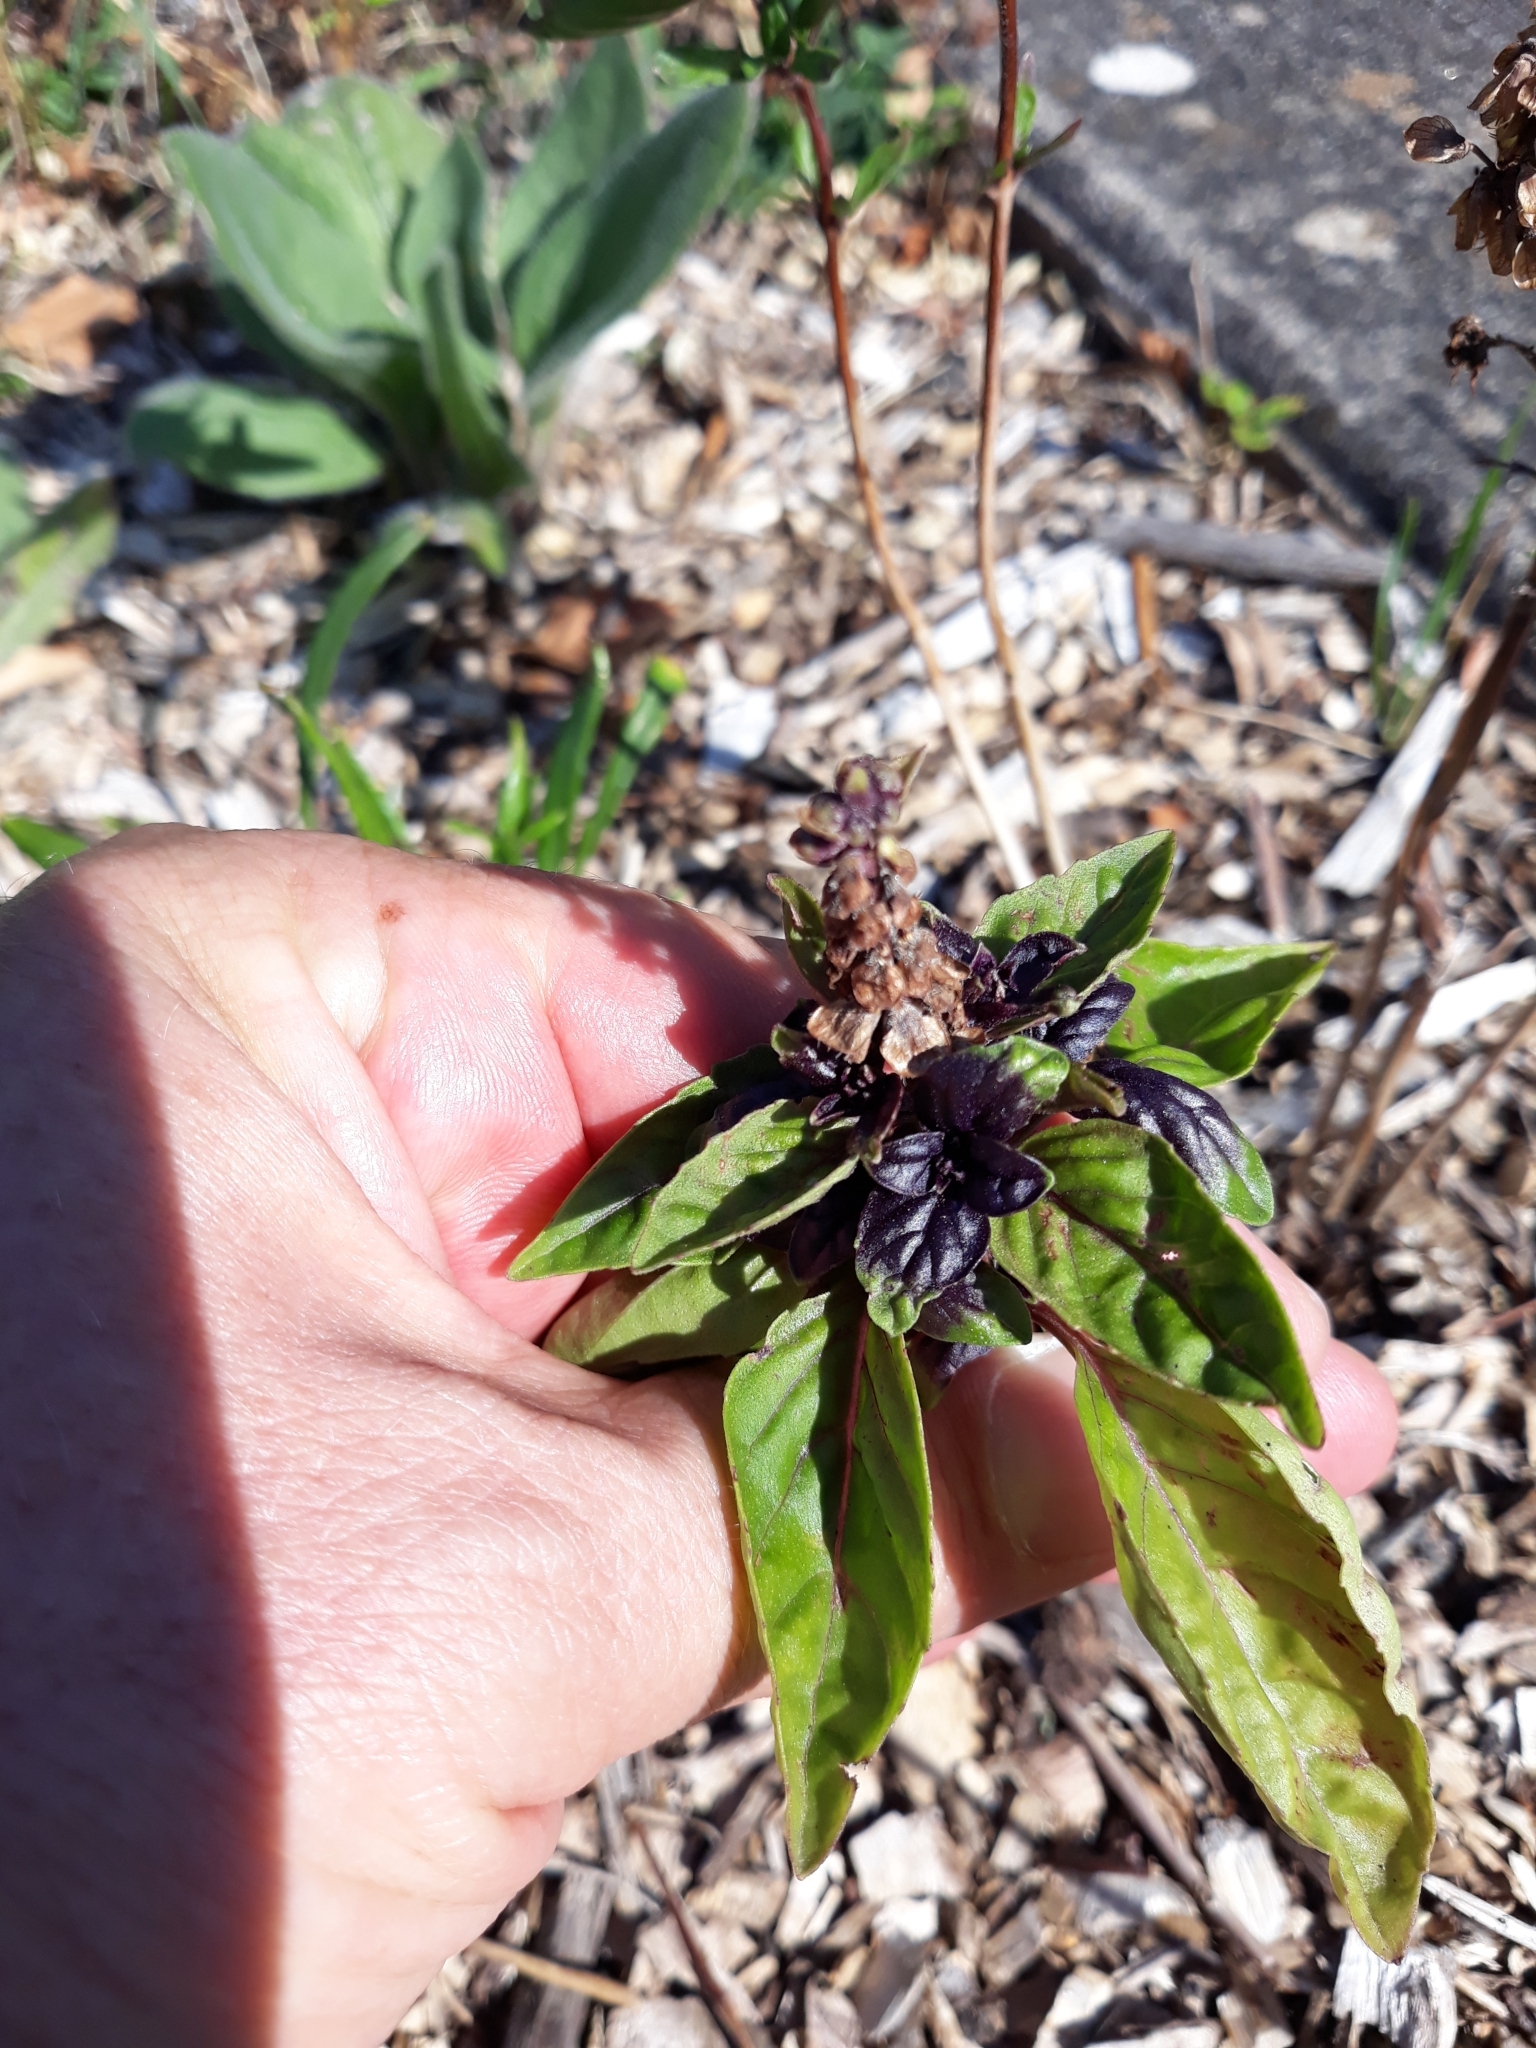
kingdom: Plantae
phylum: Tracheophyta
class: Magnoliopsida
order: Lamiales
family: Lamiaceae
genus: Prunella
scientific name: Prunella vulgaris
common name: Heal-all
